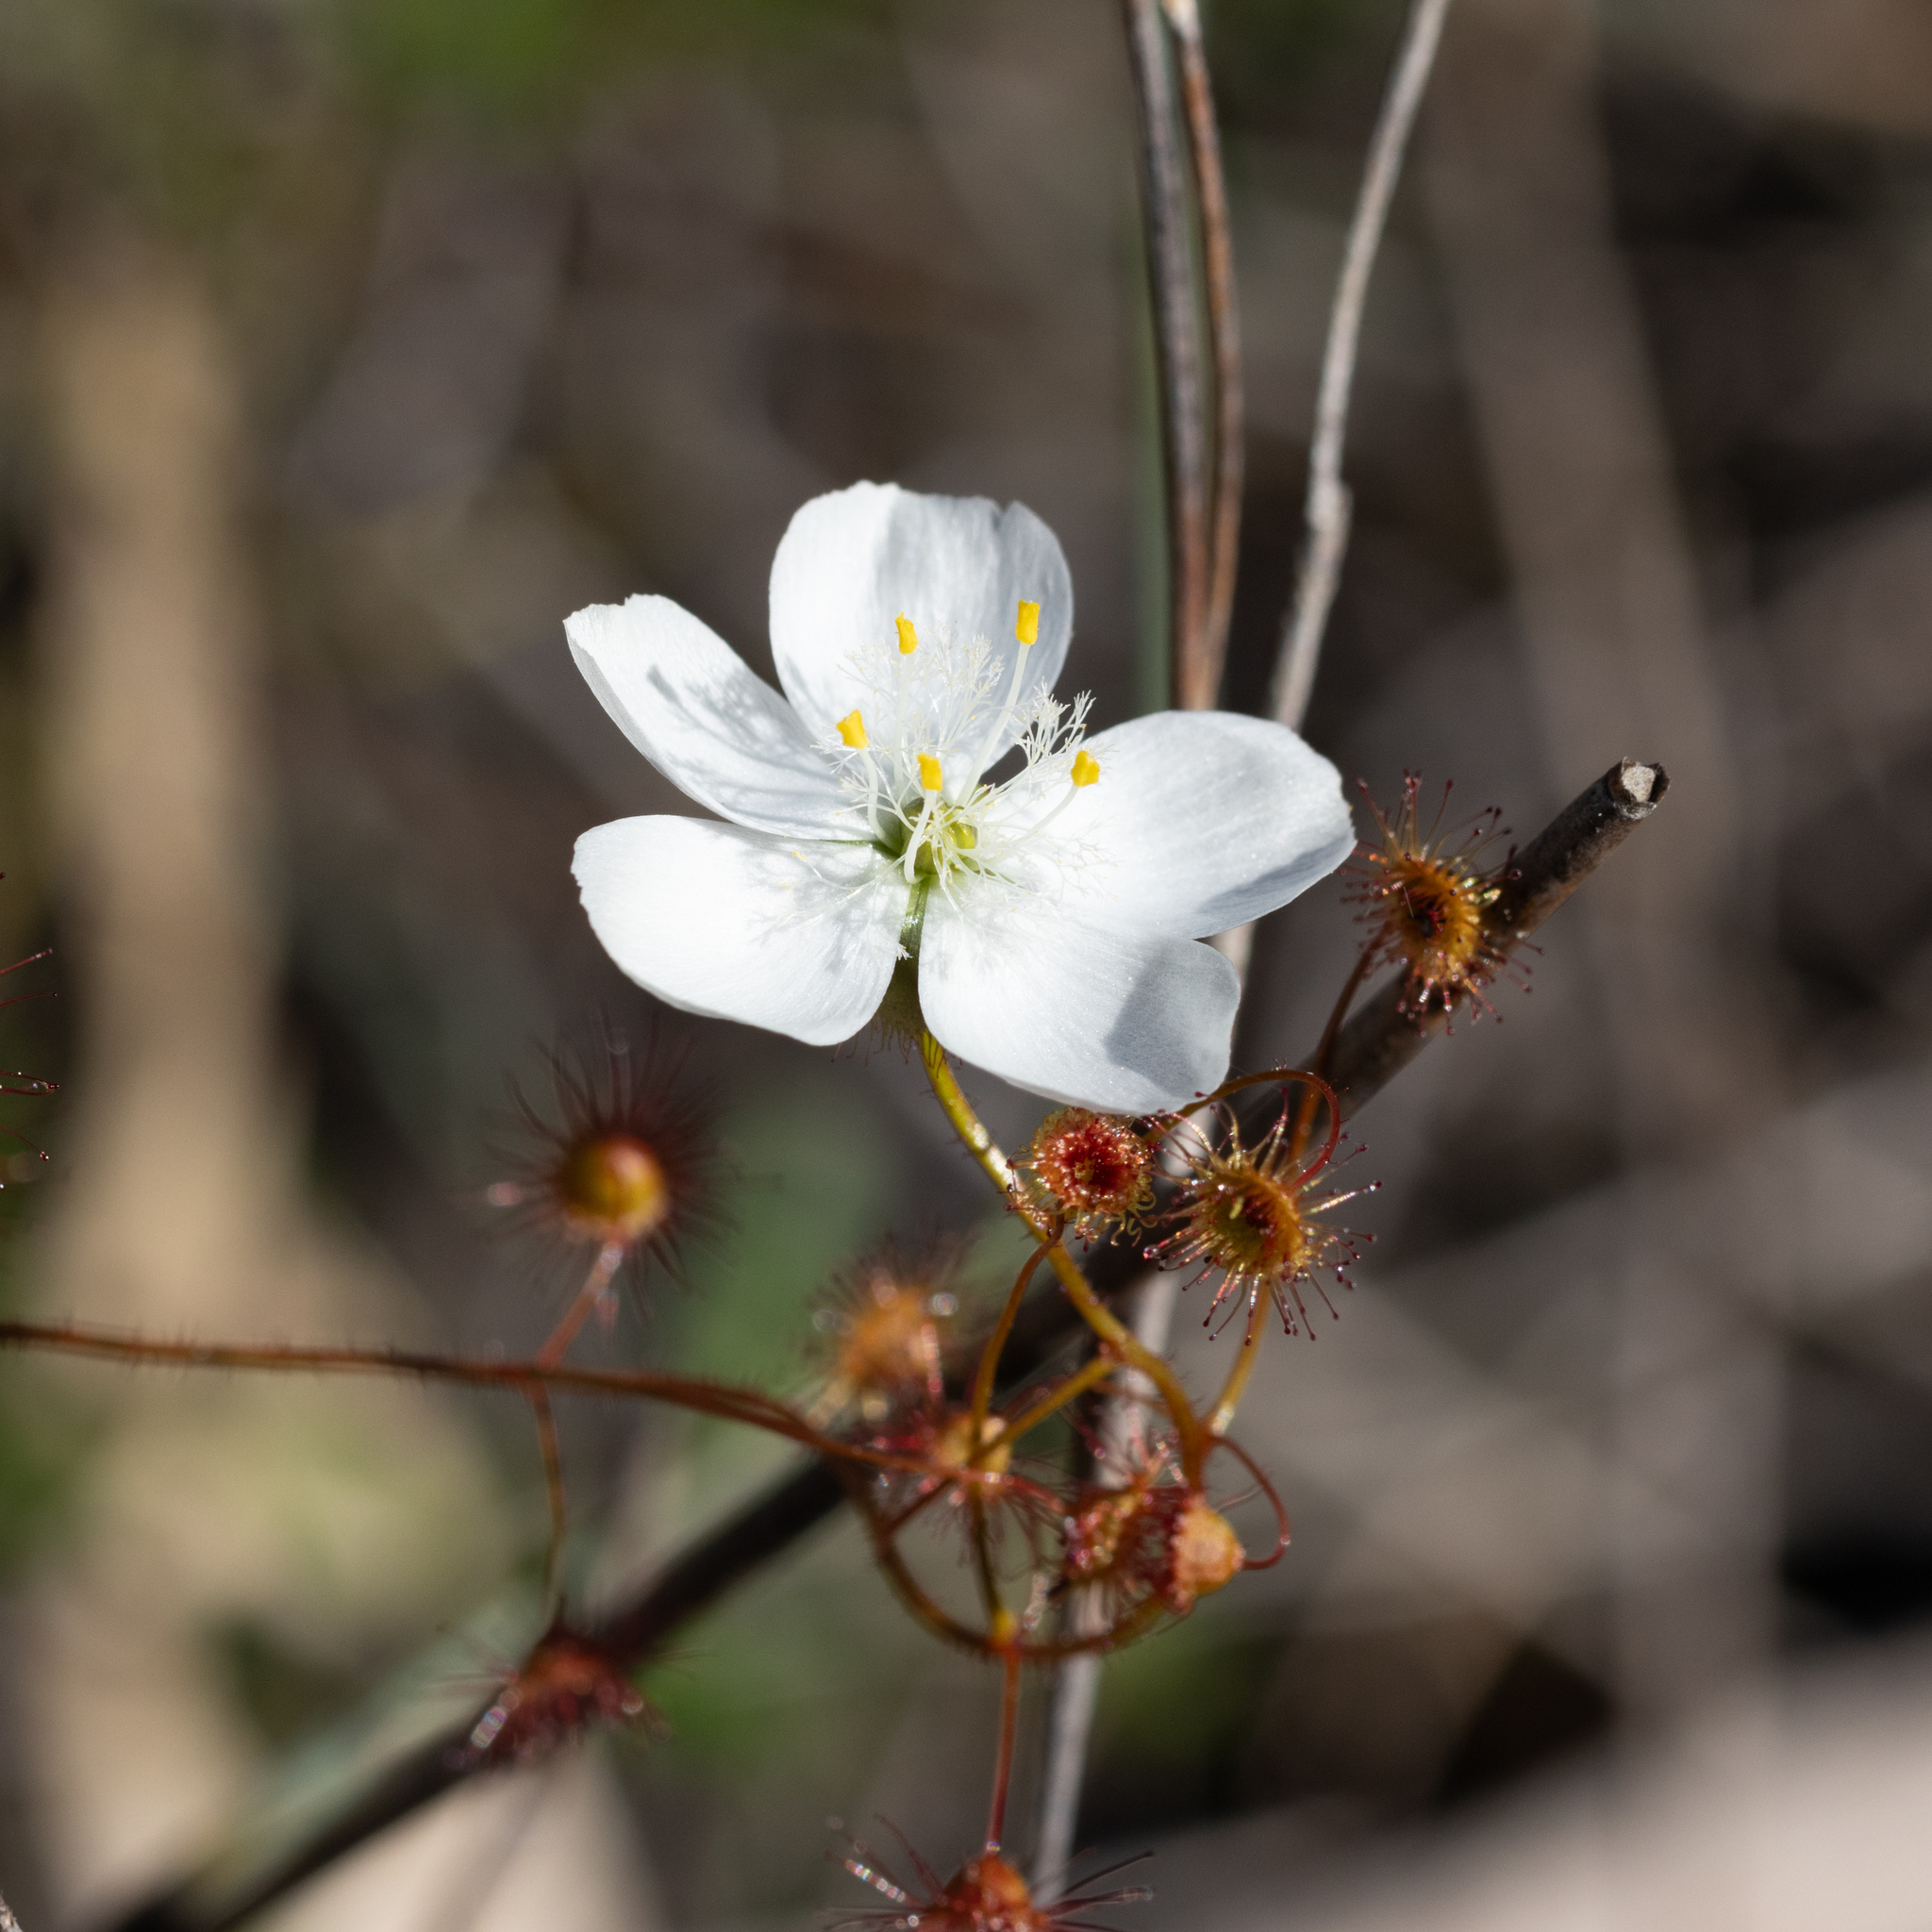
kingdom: Plantae
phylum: Tracheophyta
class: Magnoliopsida
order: Caryophyllales
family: Droseraceae
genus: Drosera
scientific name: Drosera planchonii
